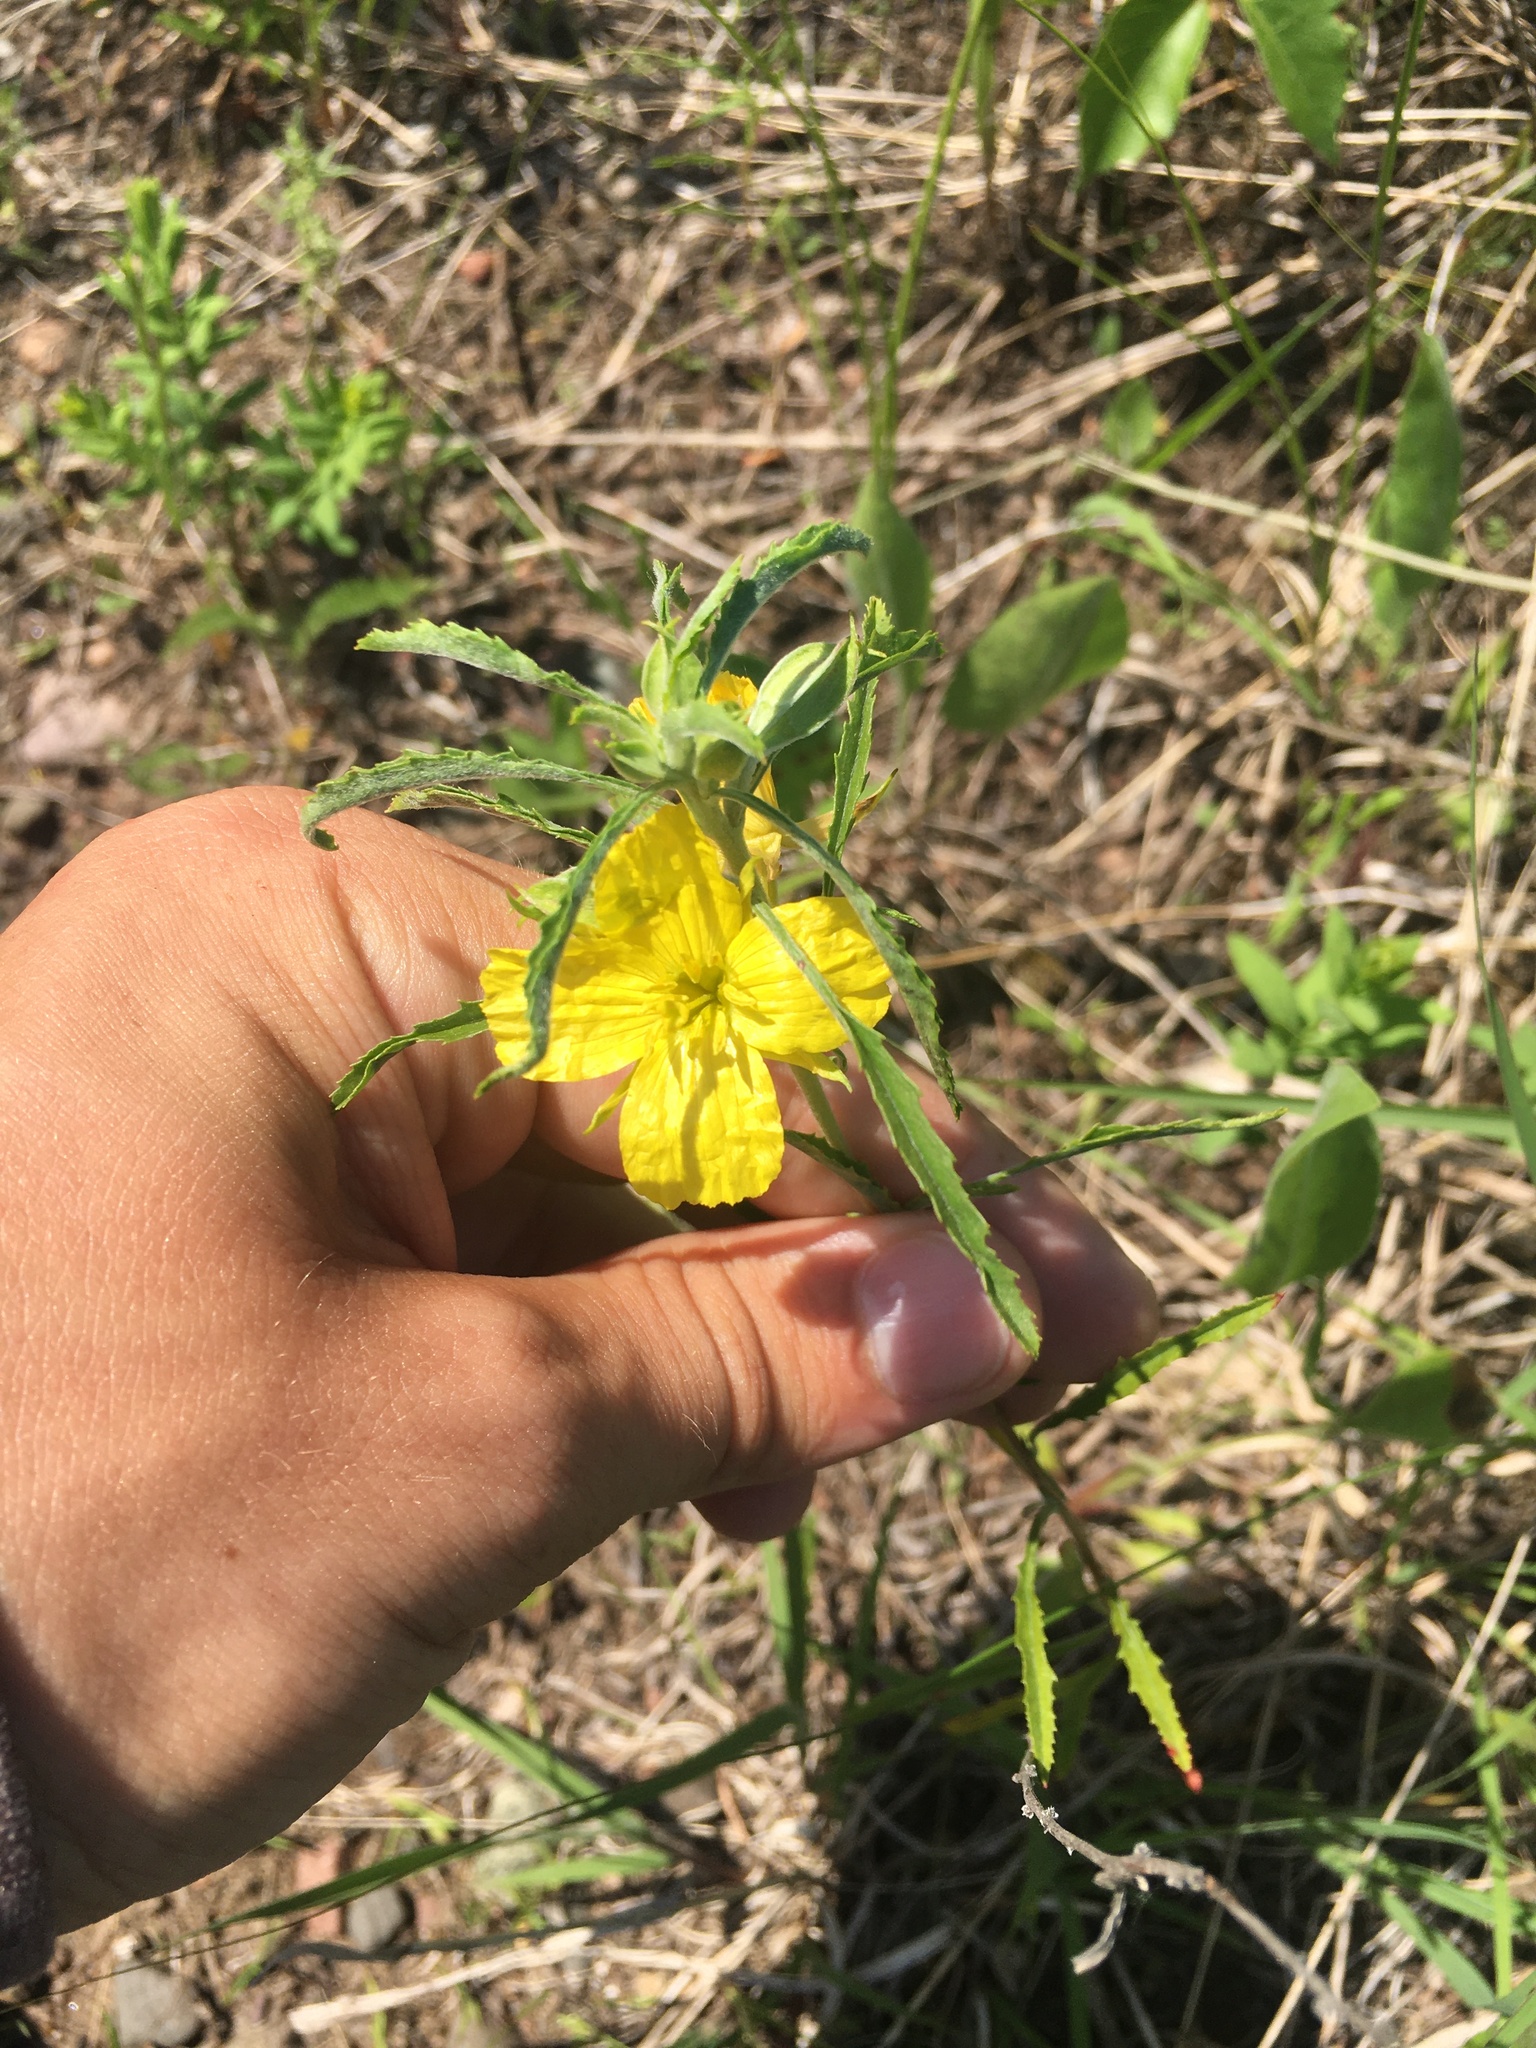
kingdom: Plantae
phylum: Tracheophyta
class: Magnoliopsida
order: Myrtales
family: Onagraceae
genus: Oenothera
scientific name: Oenothera serrulata
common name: Half-shrub calylophus
